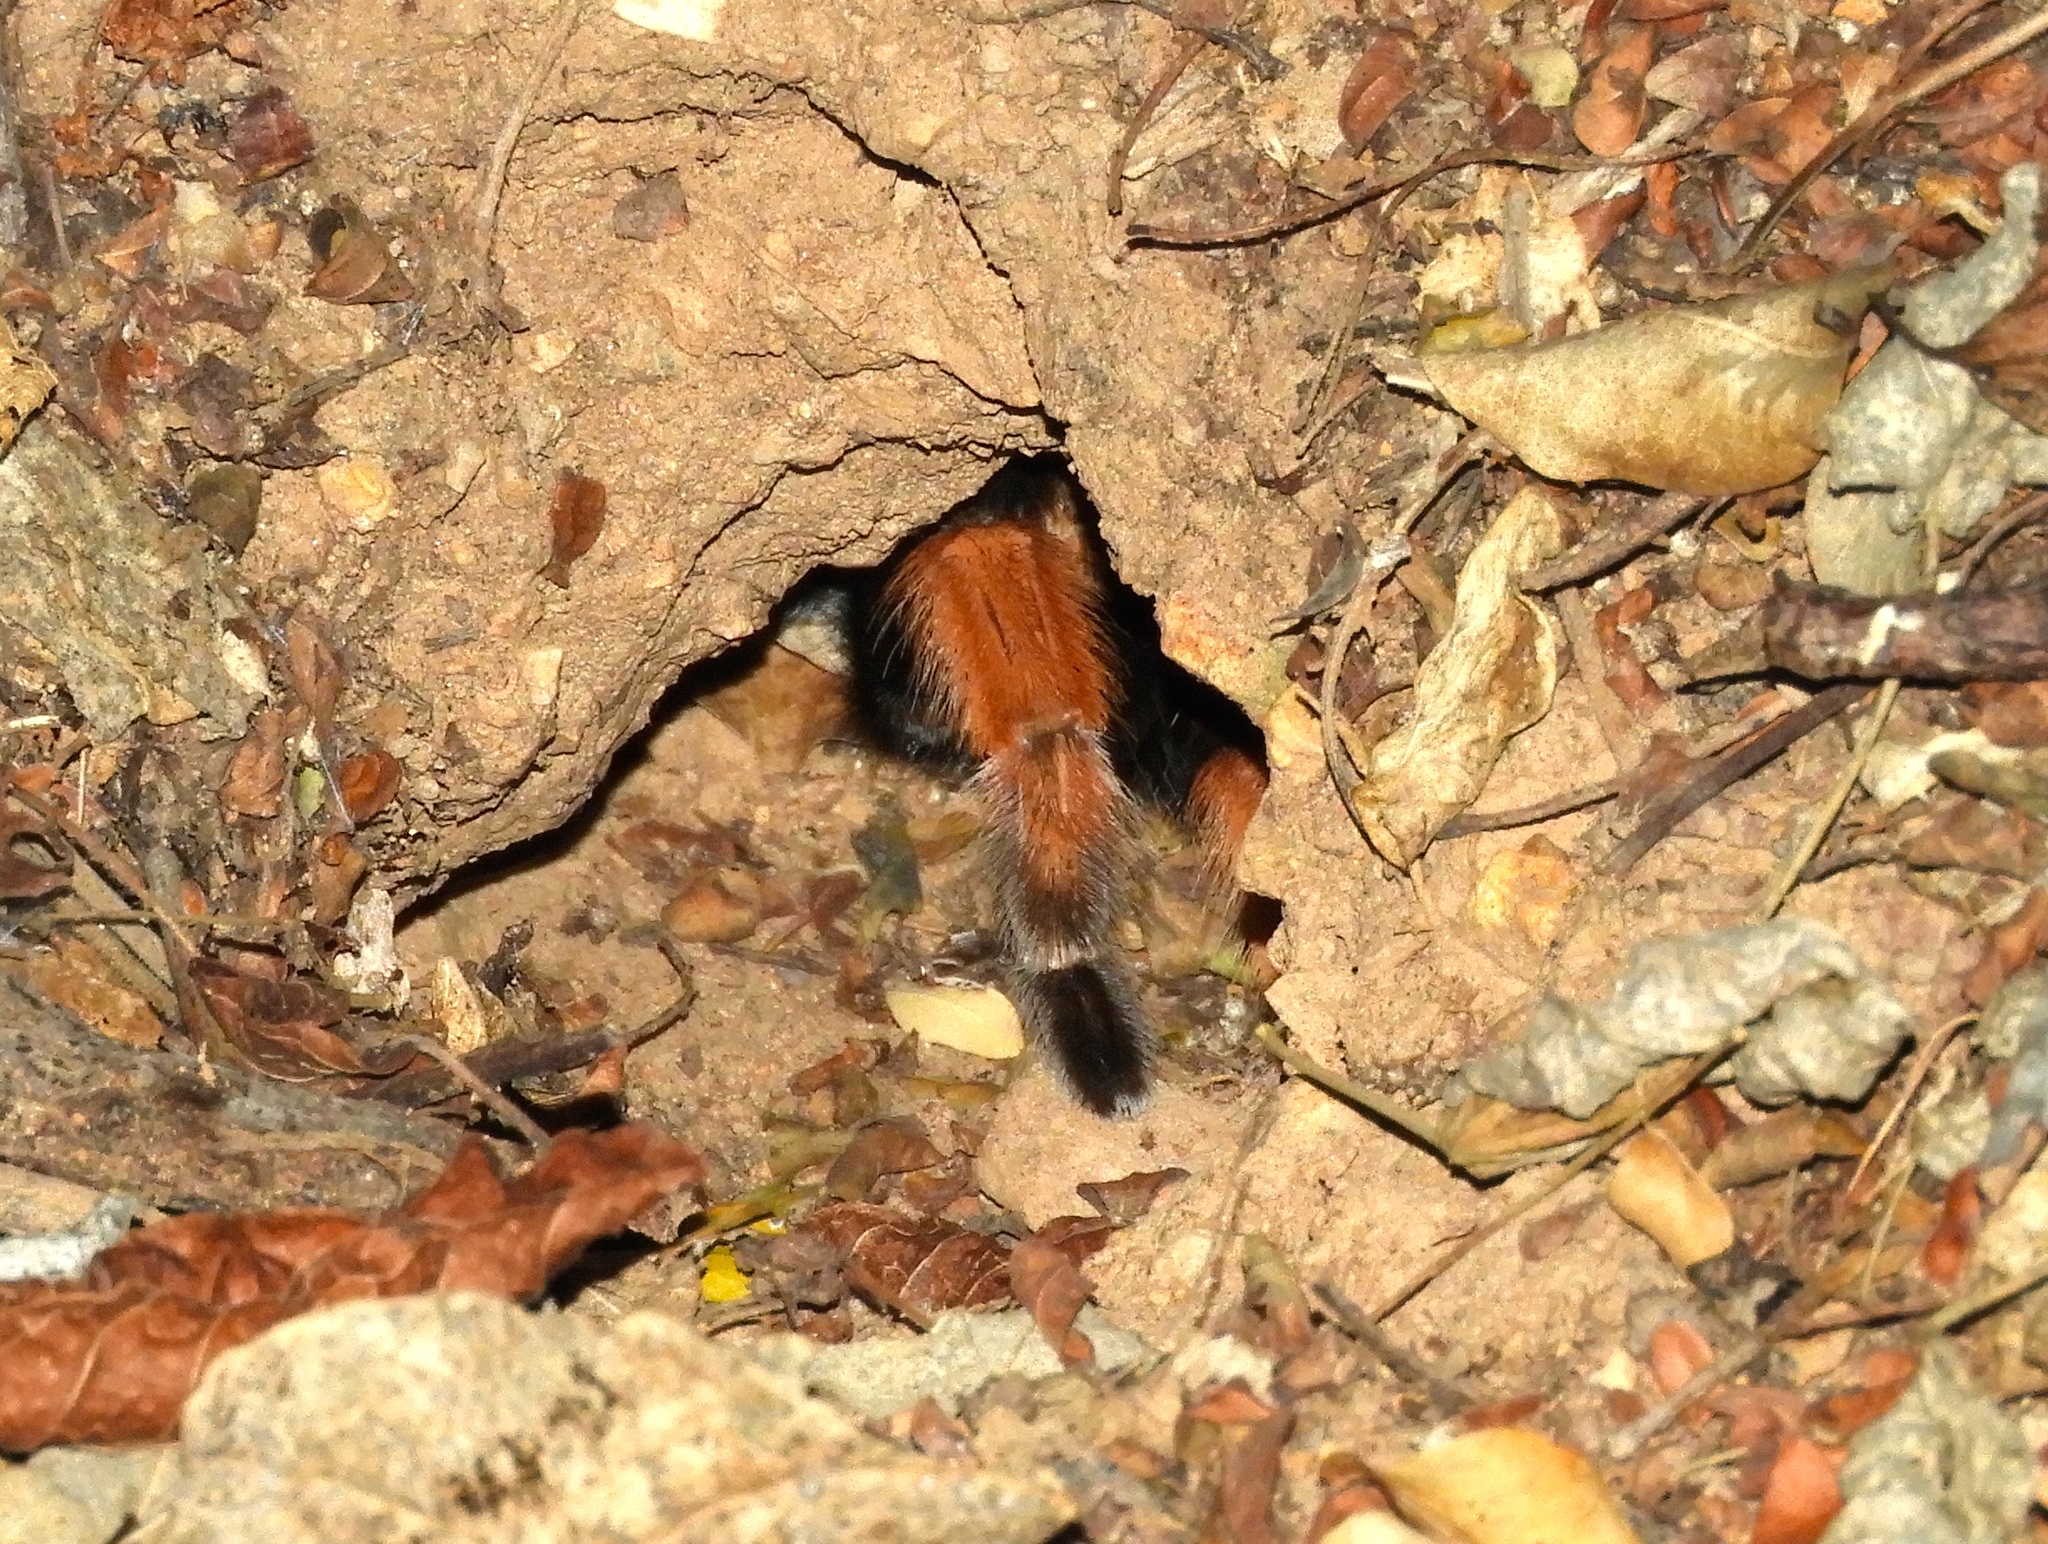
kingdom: Animalia
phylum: Arthropoda
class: Arachnida
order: Araneae
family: Theraphosidae
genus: Brachypelma
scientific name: Brachypelma emilia
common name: Mexican redleg
